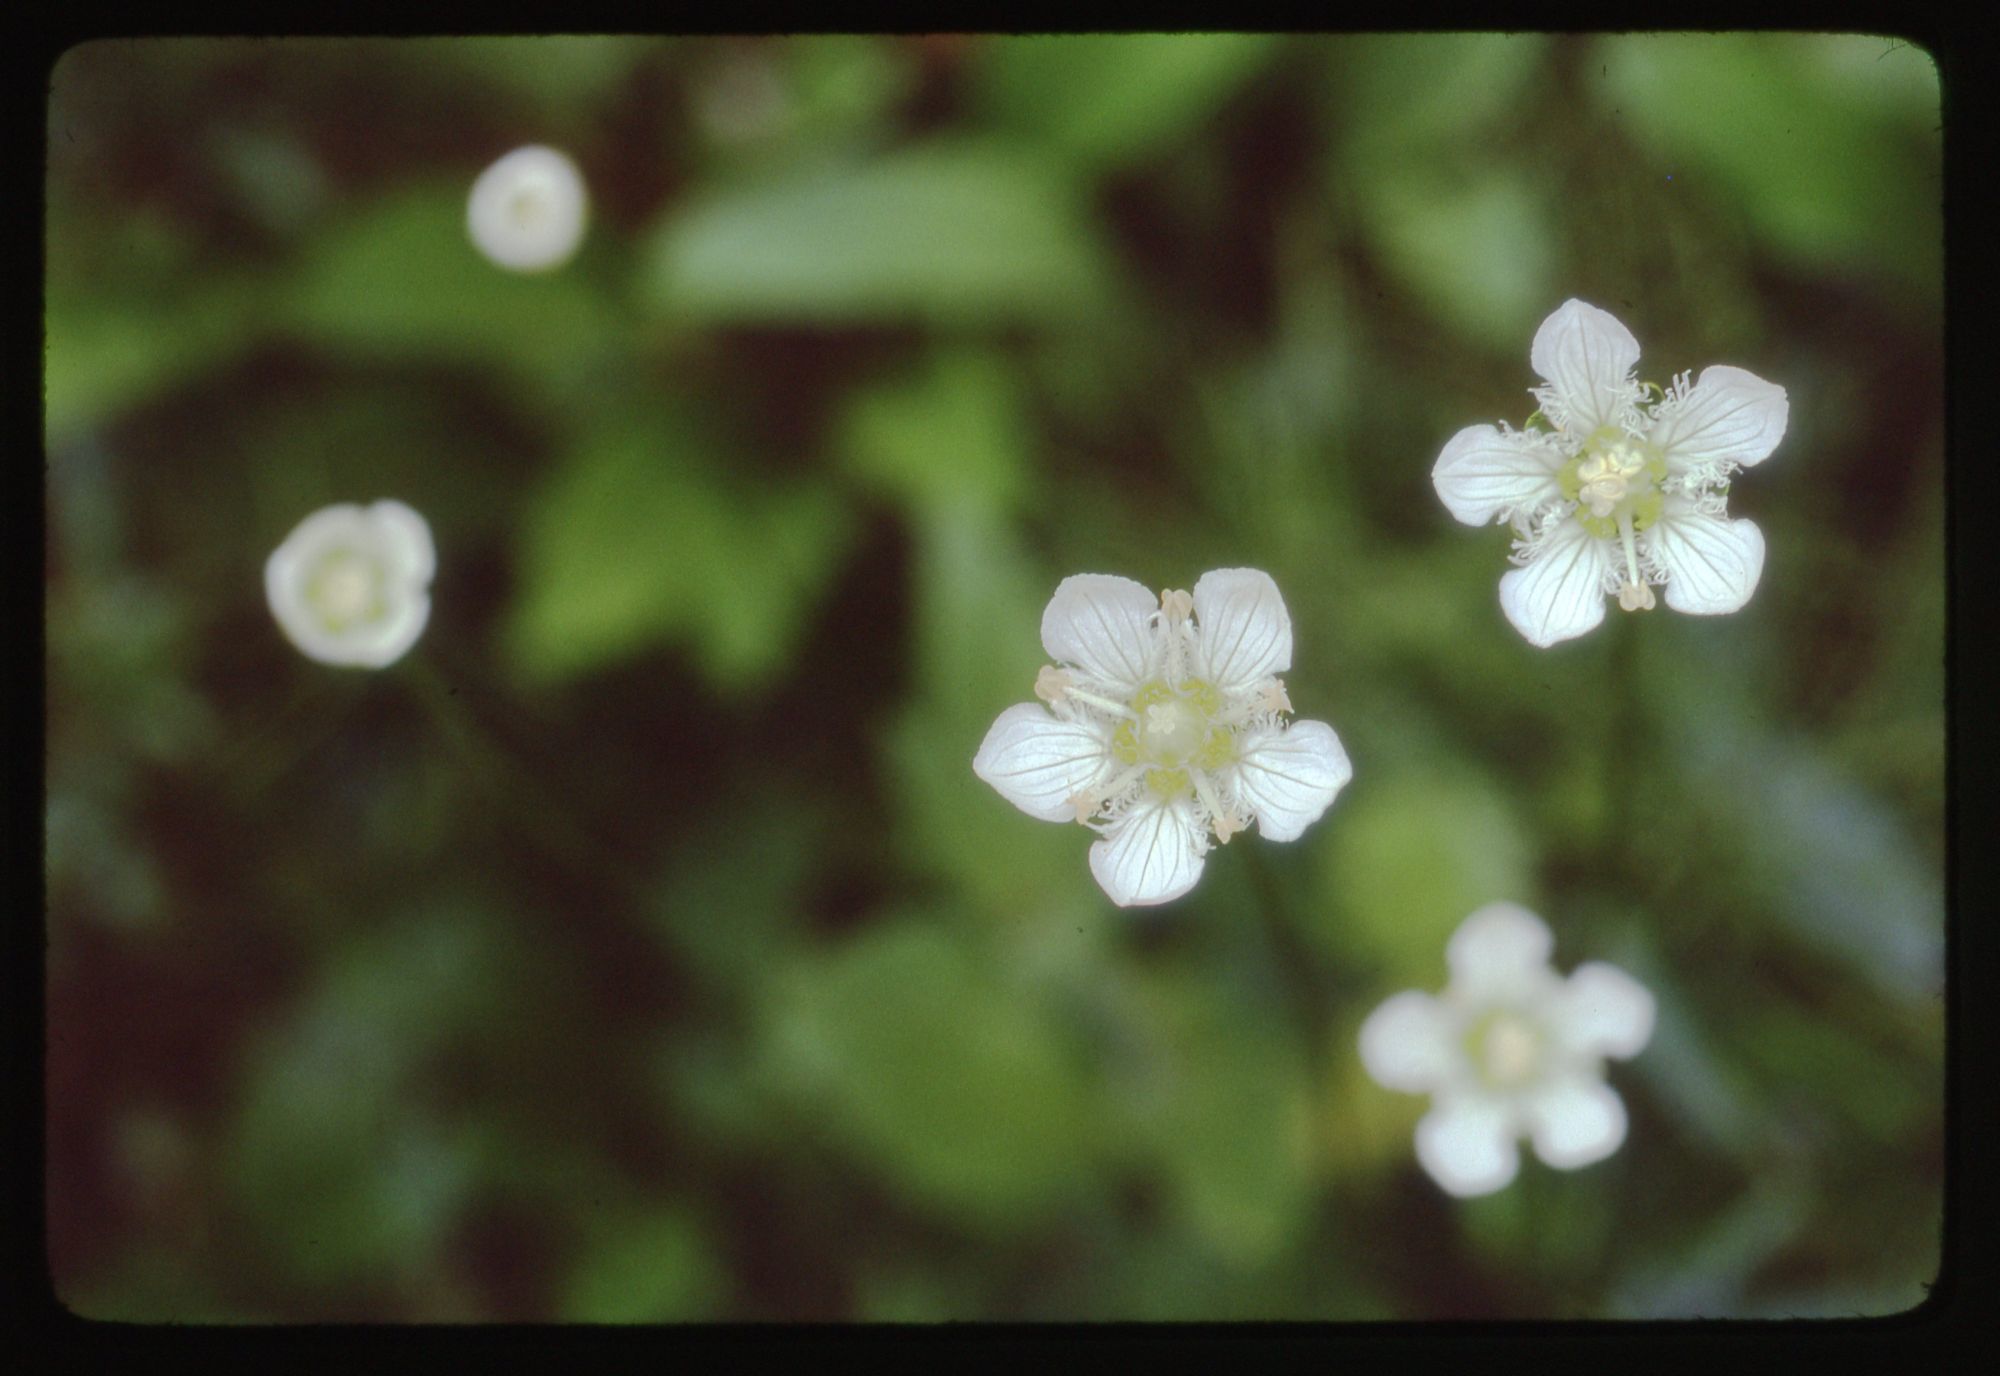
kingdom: Plantae
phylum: Tracheophyta
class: Magnoliopsida
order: Celastrales
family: Parnassiaceae
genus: Parnassia
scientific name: Parnassia fimbriata
